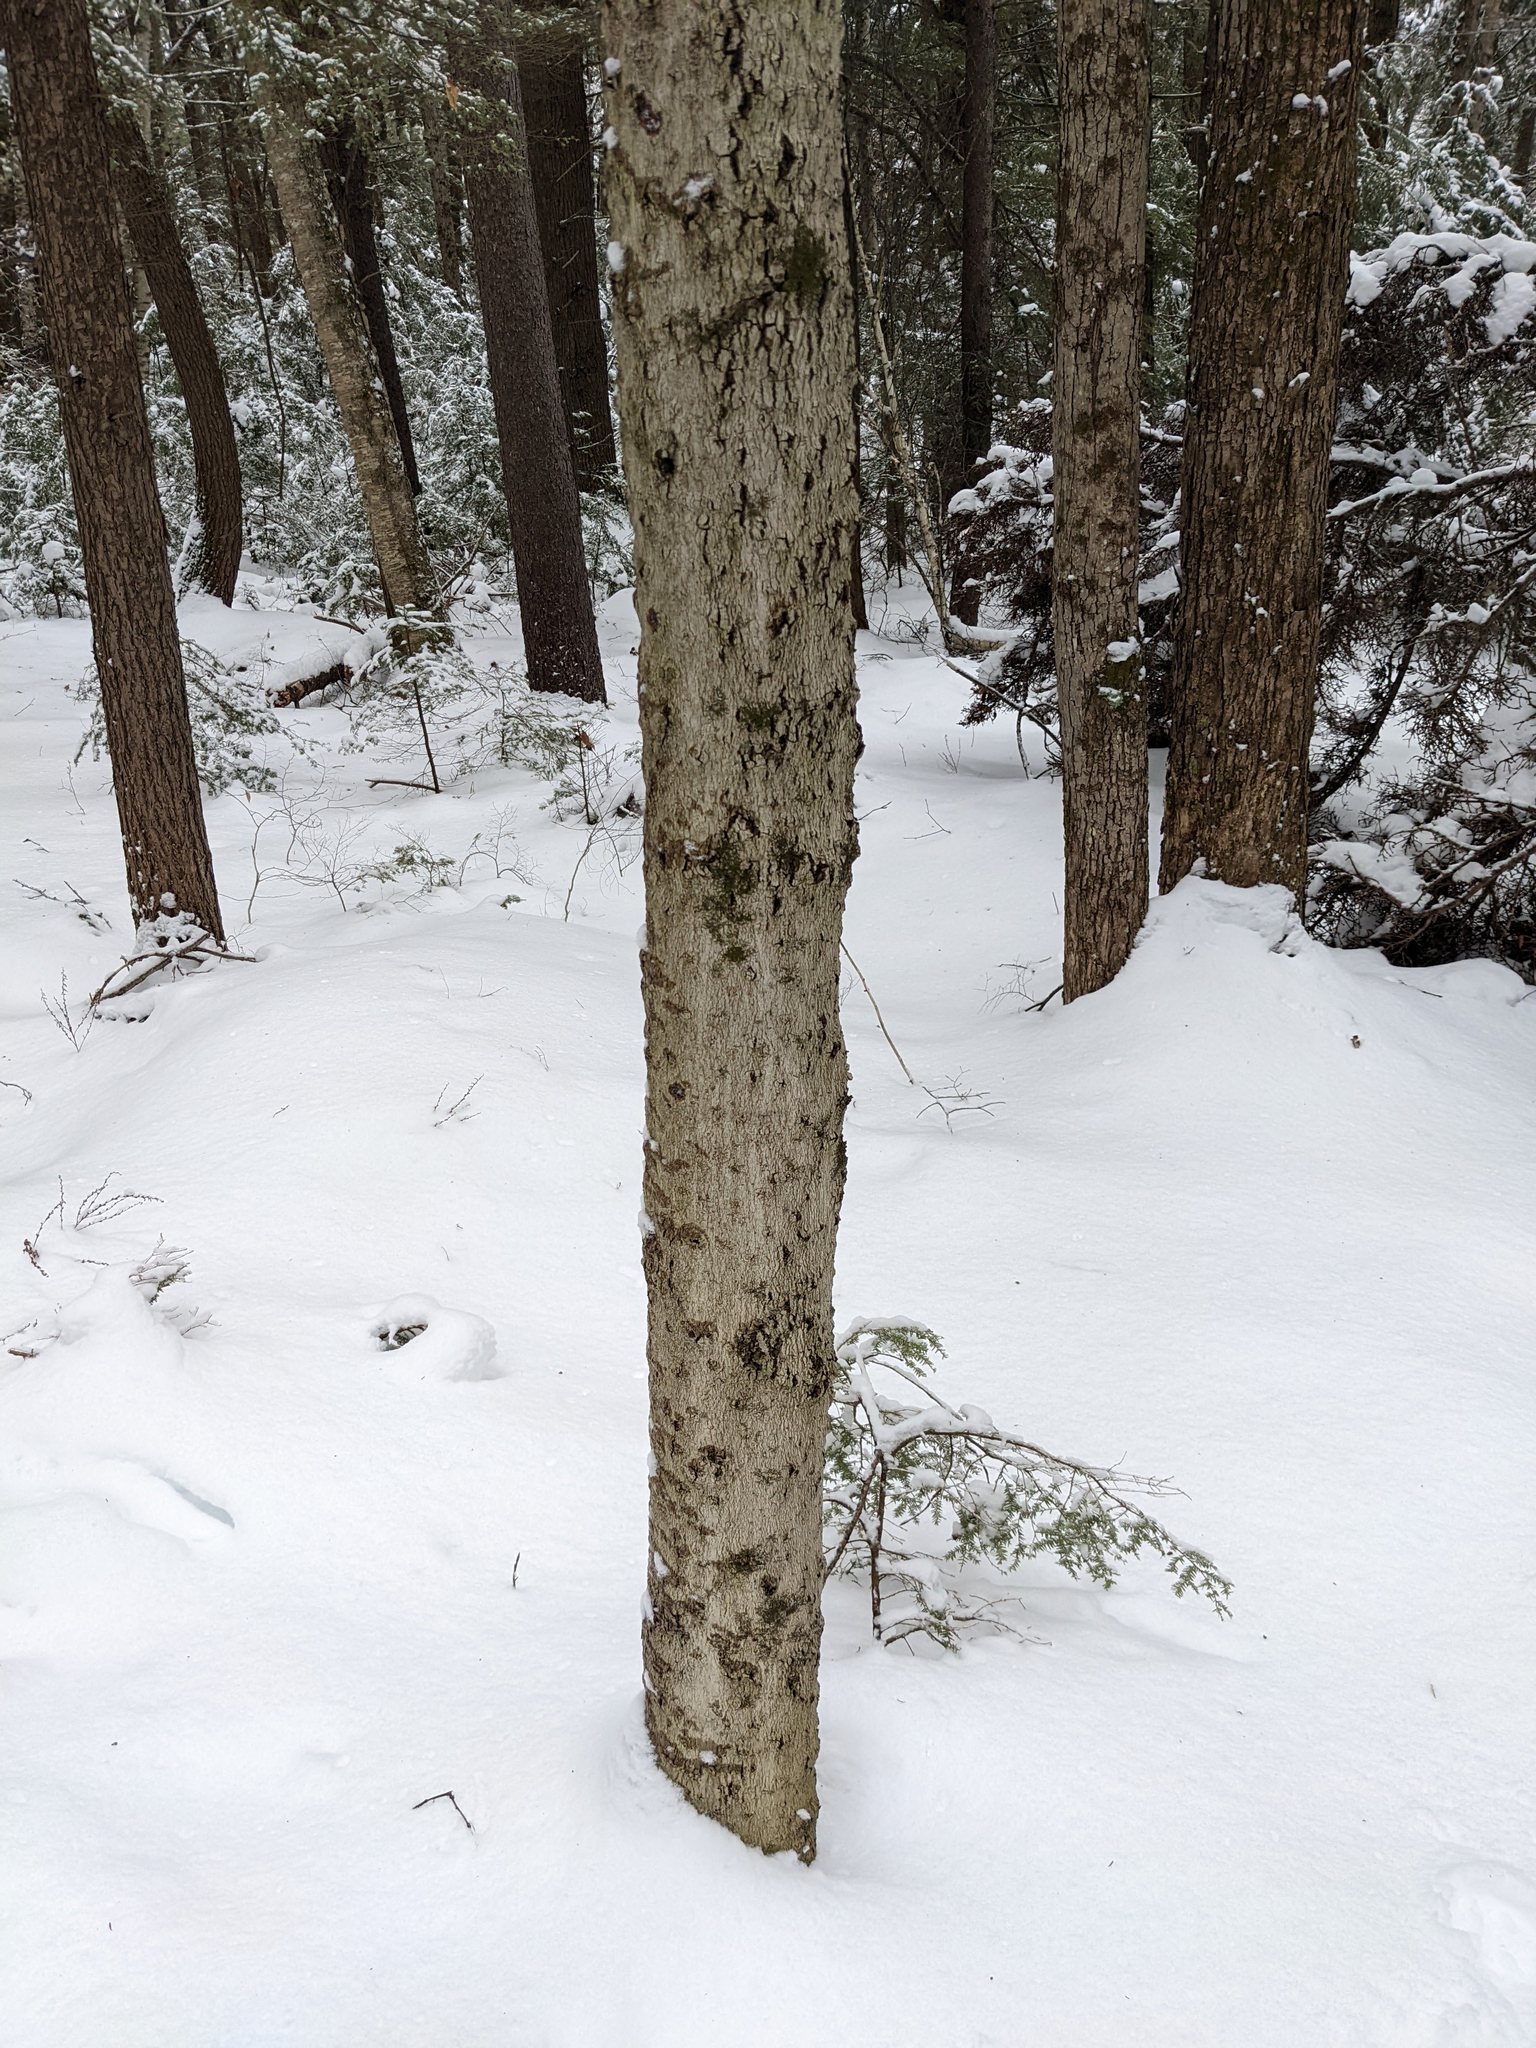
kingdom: Plantae
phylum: Tracheophyta
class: Magnoliopsida
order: Fagales
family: Fagaceae
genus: Fagus
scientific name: Fagus grandifolia
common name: American beech
